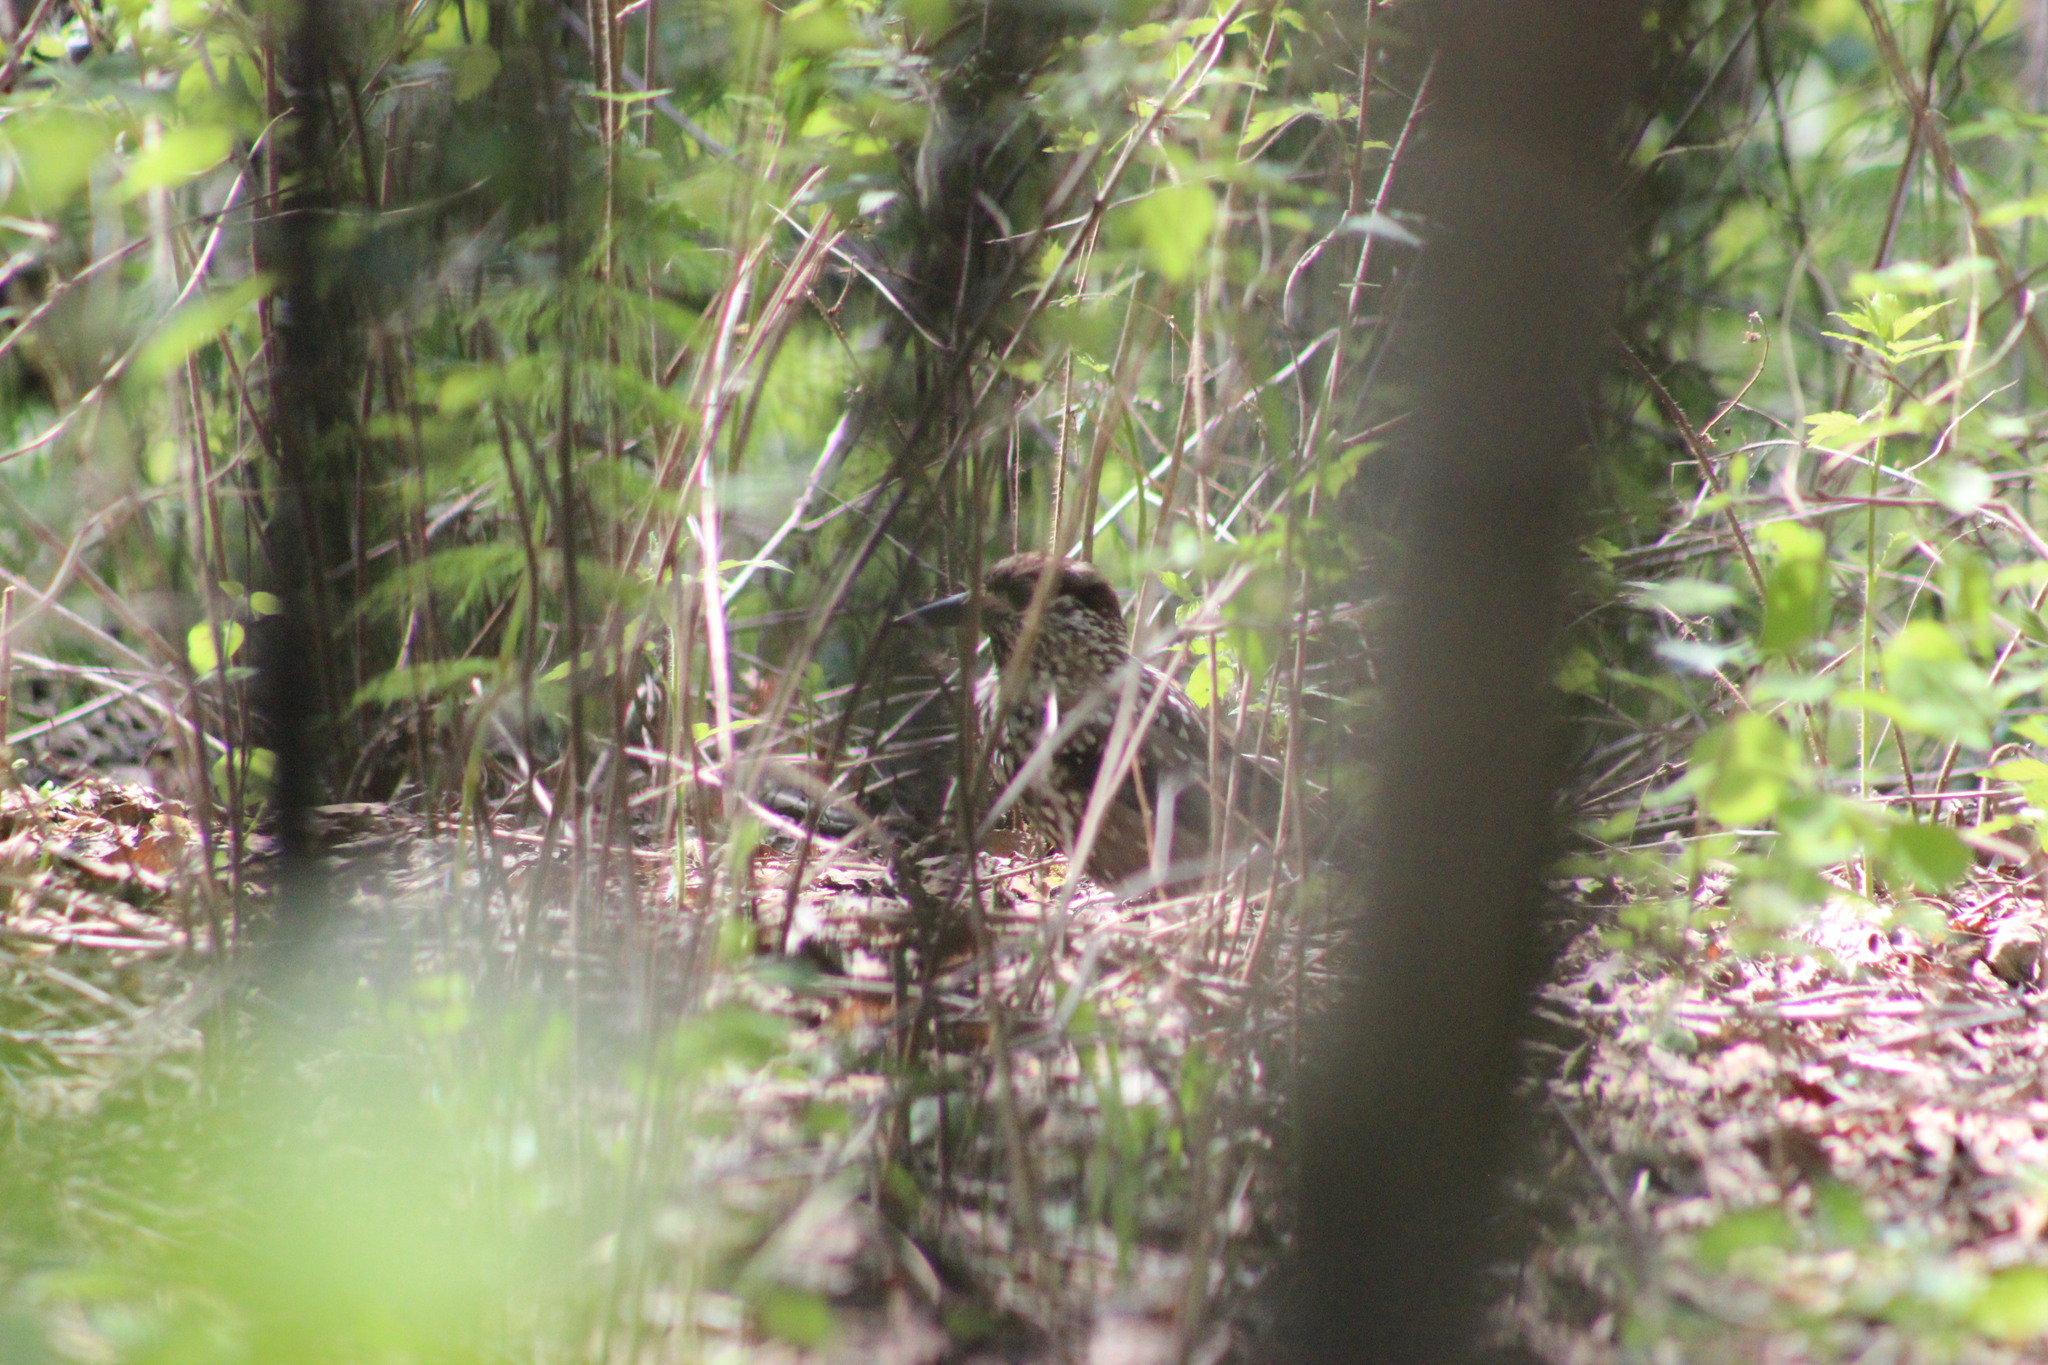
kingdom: Animalia
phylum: Chordata
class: Aves
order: Passeriformes
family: Corvidae
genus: Nucifraga
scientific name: Nucifraga caryocatactes
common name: Spotted nutcracker
